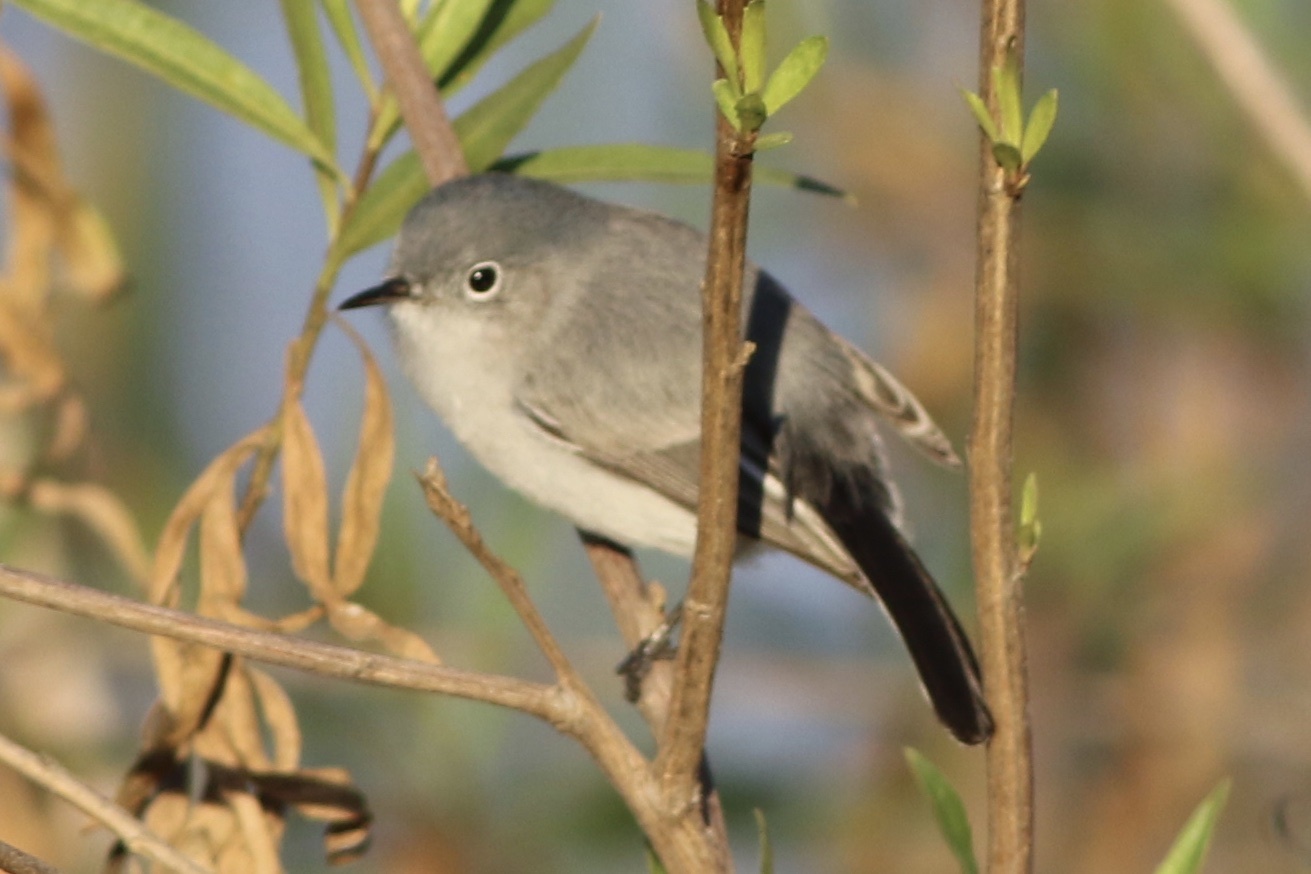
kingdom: Animalia
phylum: Chordata
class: Aves
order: Passeriformes
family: Polioptilidae
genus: Polioptila
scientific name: Polioptila caerulea
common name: Blue-gray gnatcatcher
